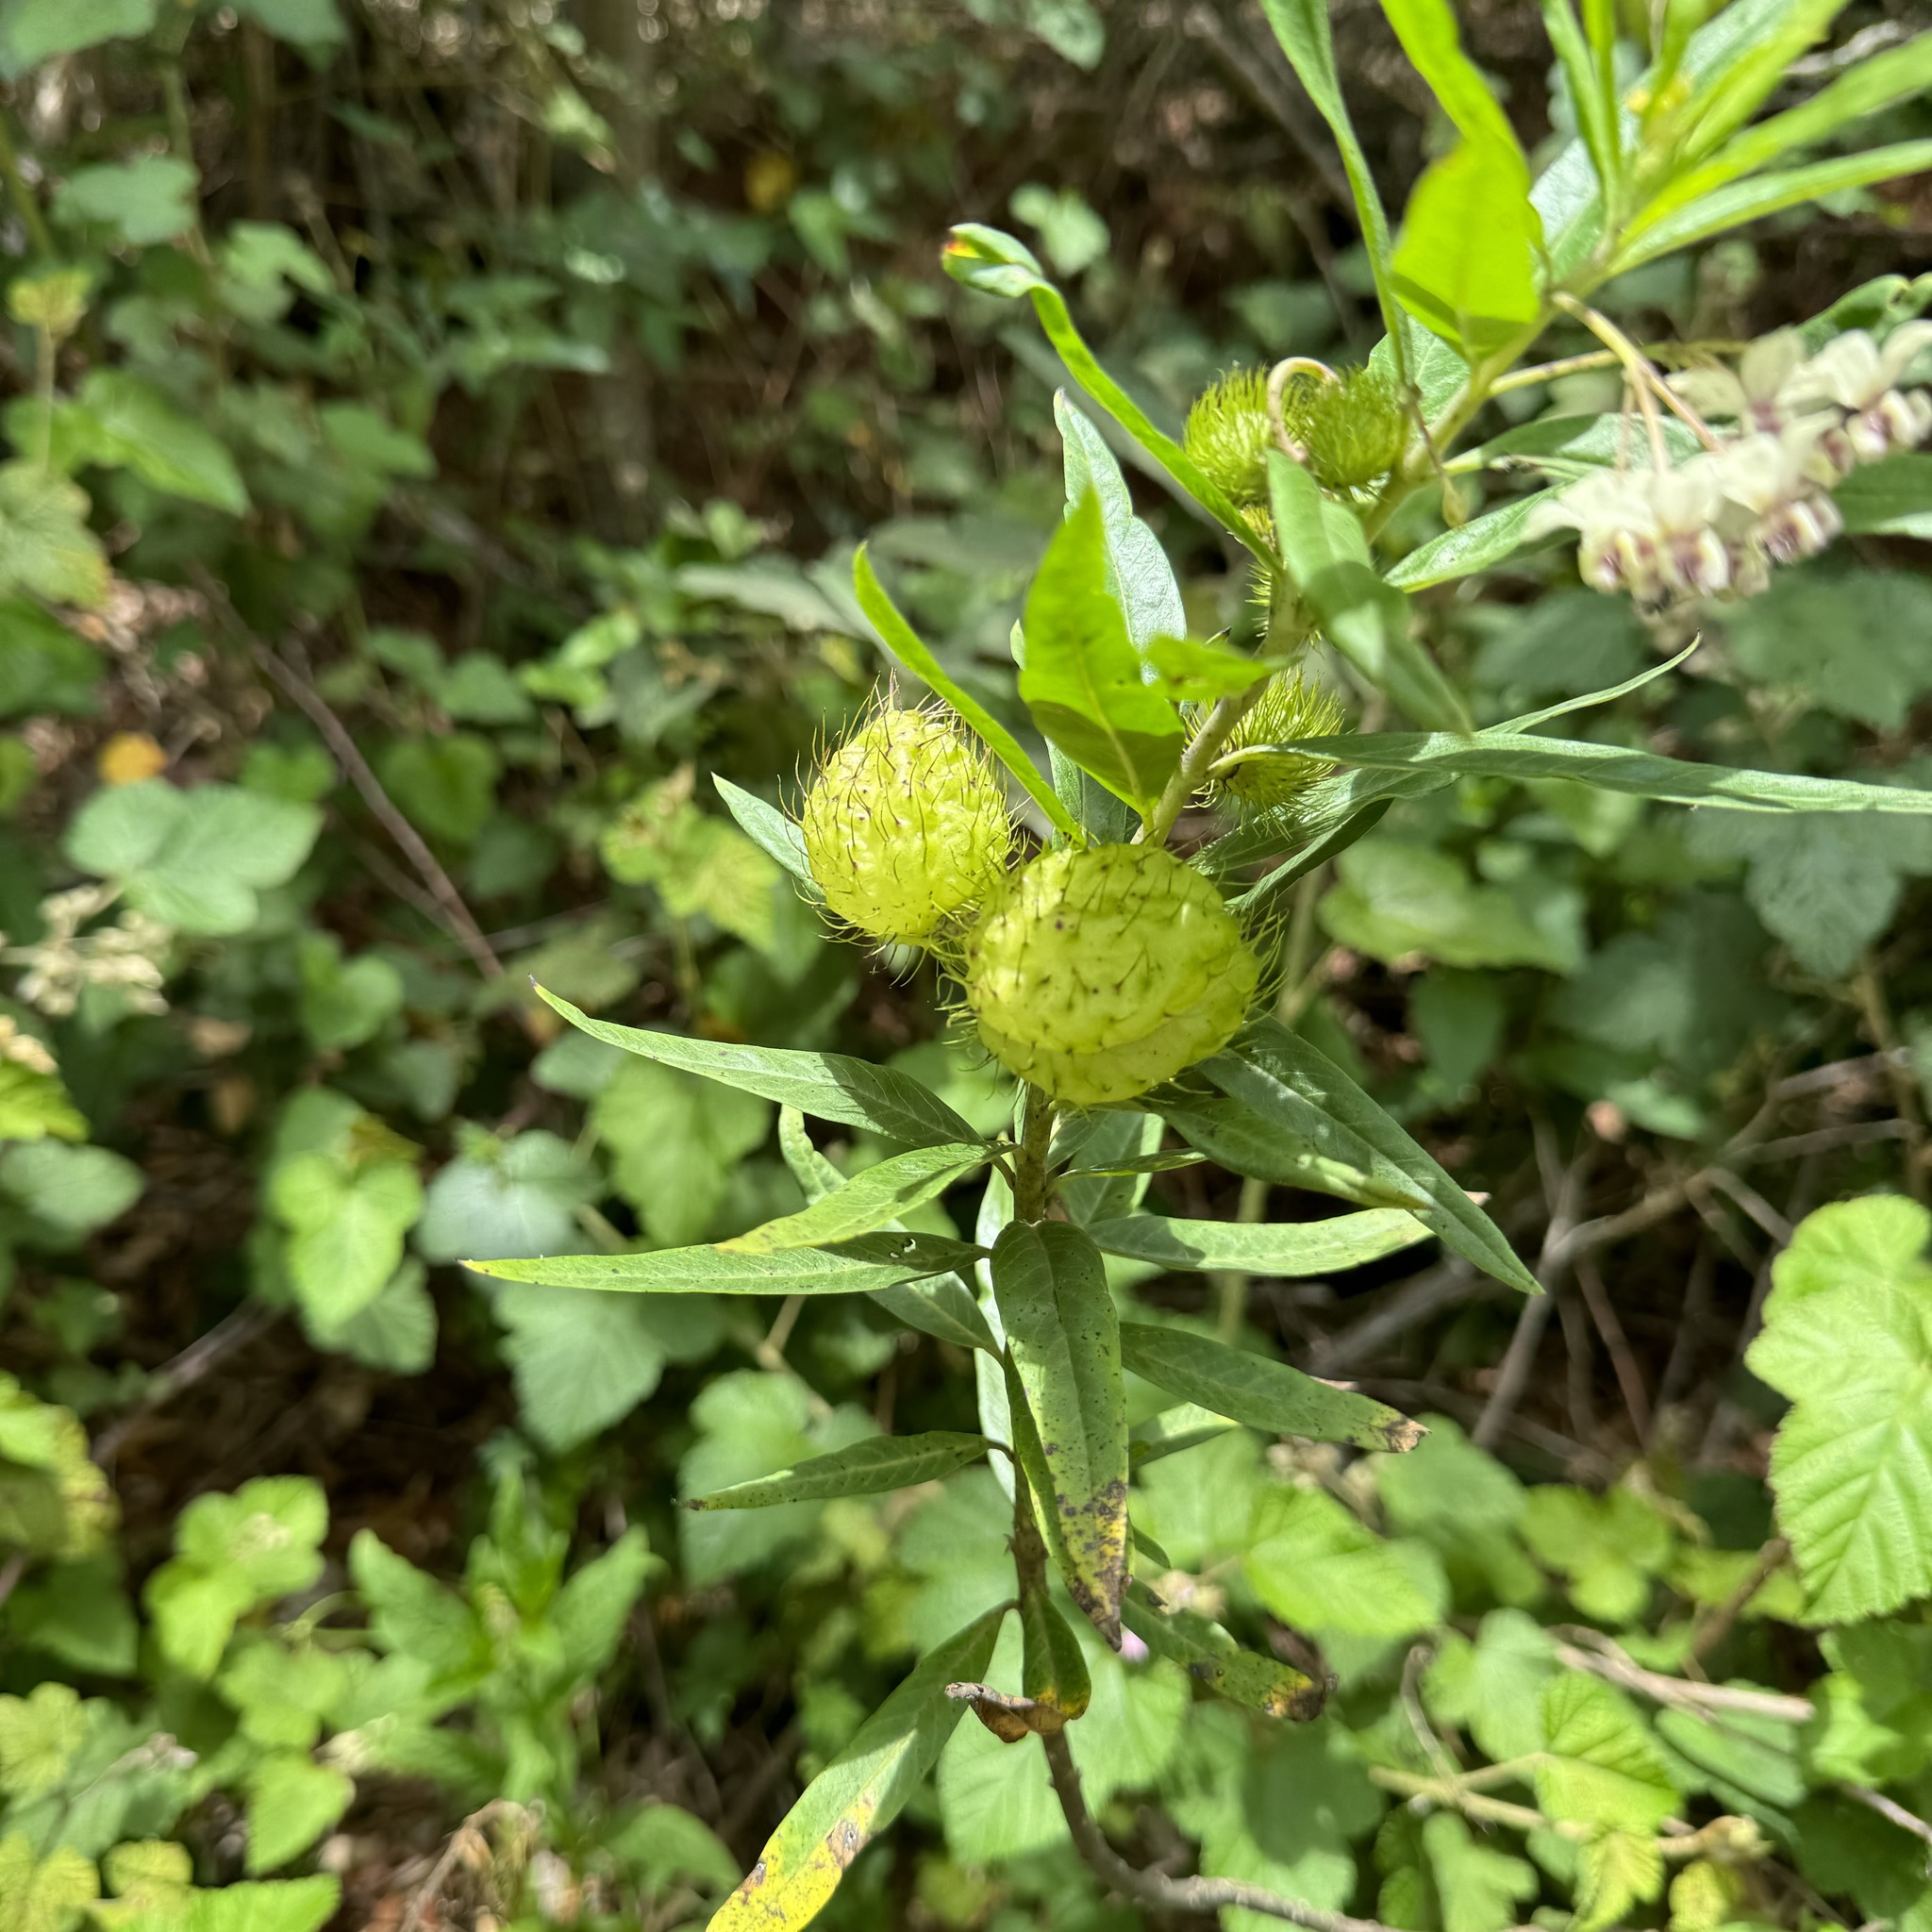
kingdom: Plantae
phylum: Tracheophyta
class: Magnoliopsida
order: Gentianales
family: Apocynaceae
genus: Gomphocarpus
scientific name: Gomphocarpus physocarpus
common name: Balloon cotton bush
